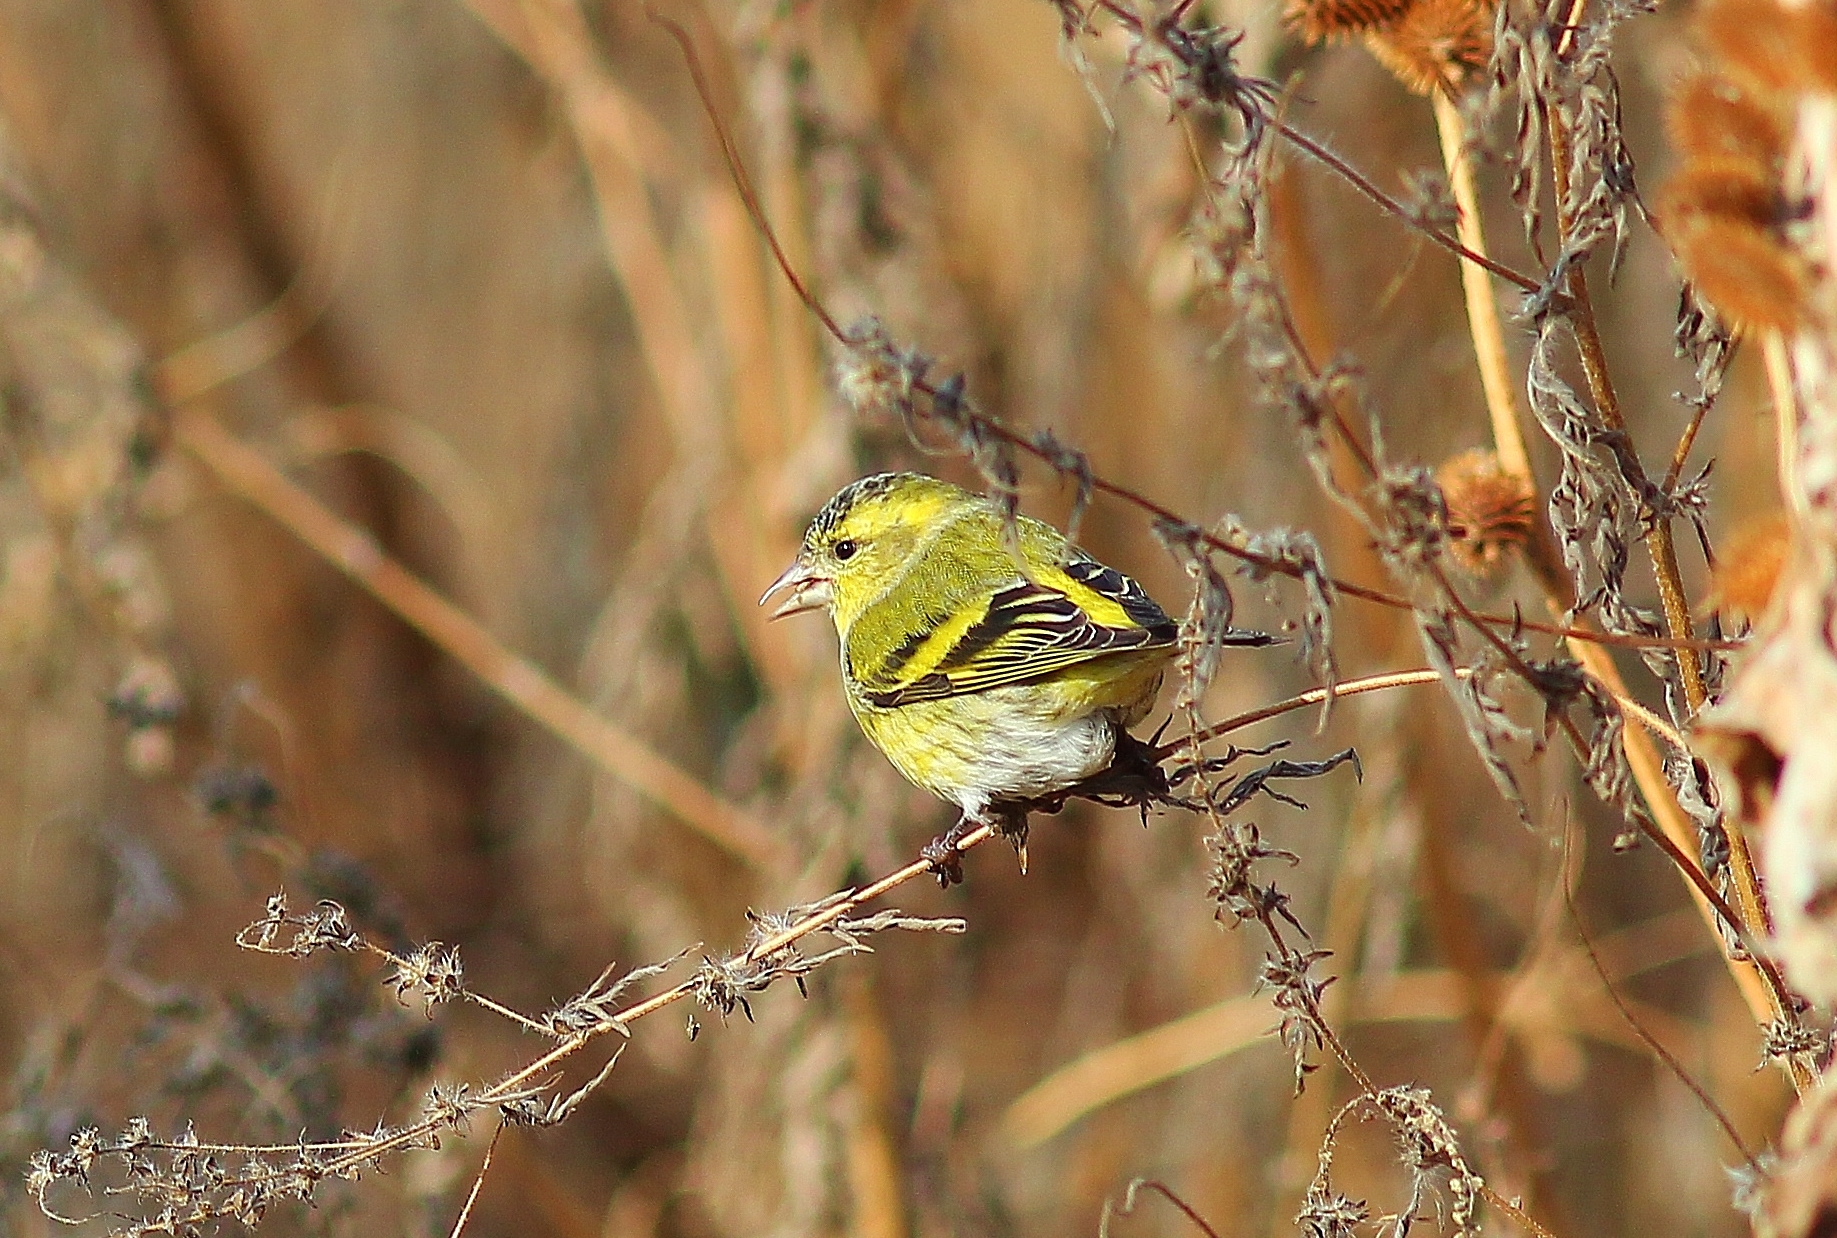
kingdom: Animalia
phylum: Chordata
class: Aves
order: Passeriformes
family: Fringillidae
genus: Spinus
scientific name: Spinus spinus
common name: Eurasian siskin
